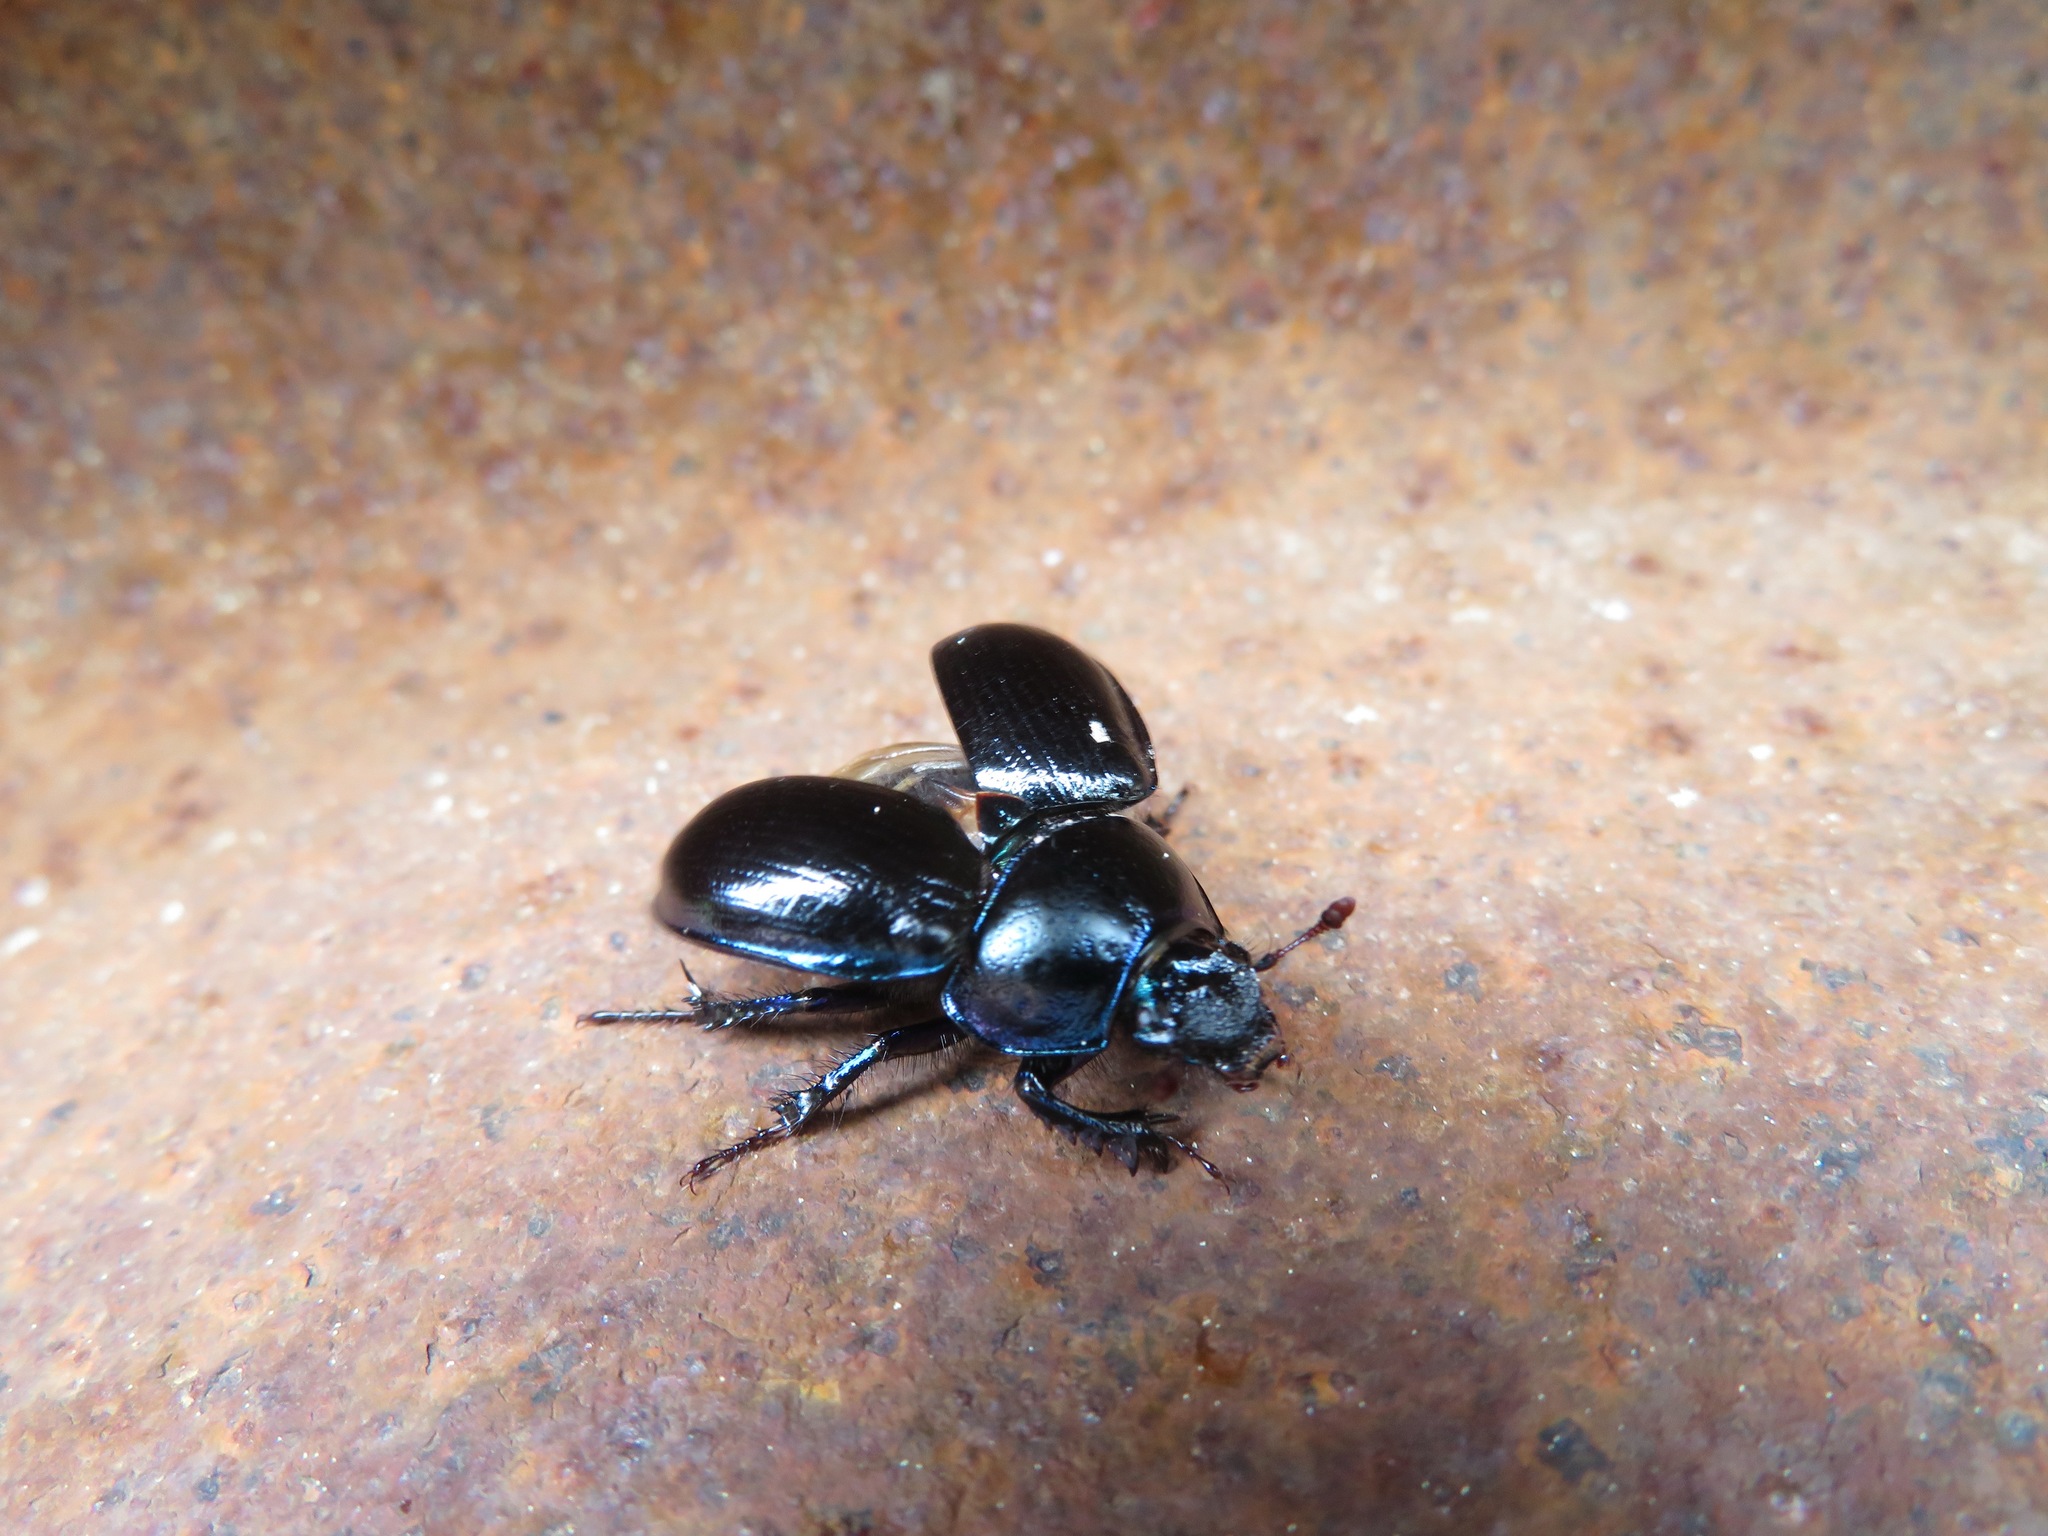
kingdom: Animalia
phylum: Arthropoda
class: Insecta
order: Coleoptera
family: Geotrupidae
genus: Anoplotrupes
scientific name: Anoplotrupes stercorosus
